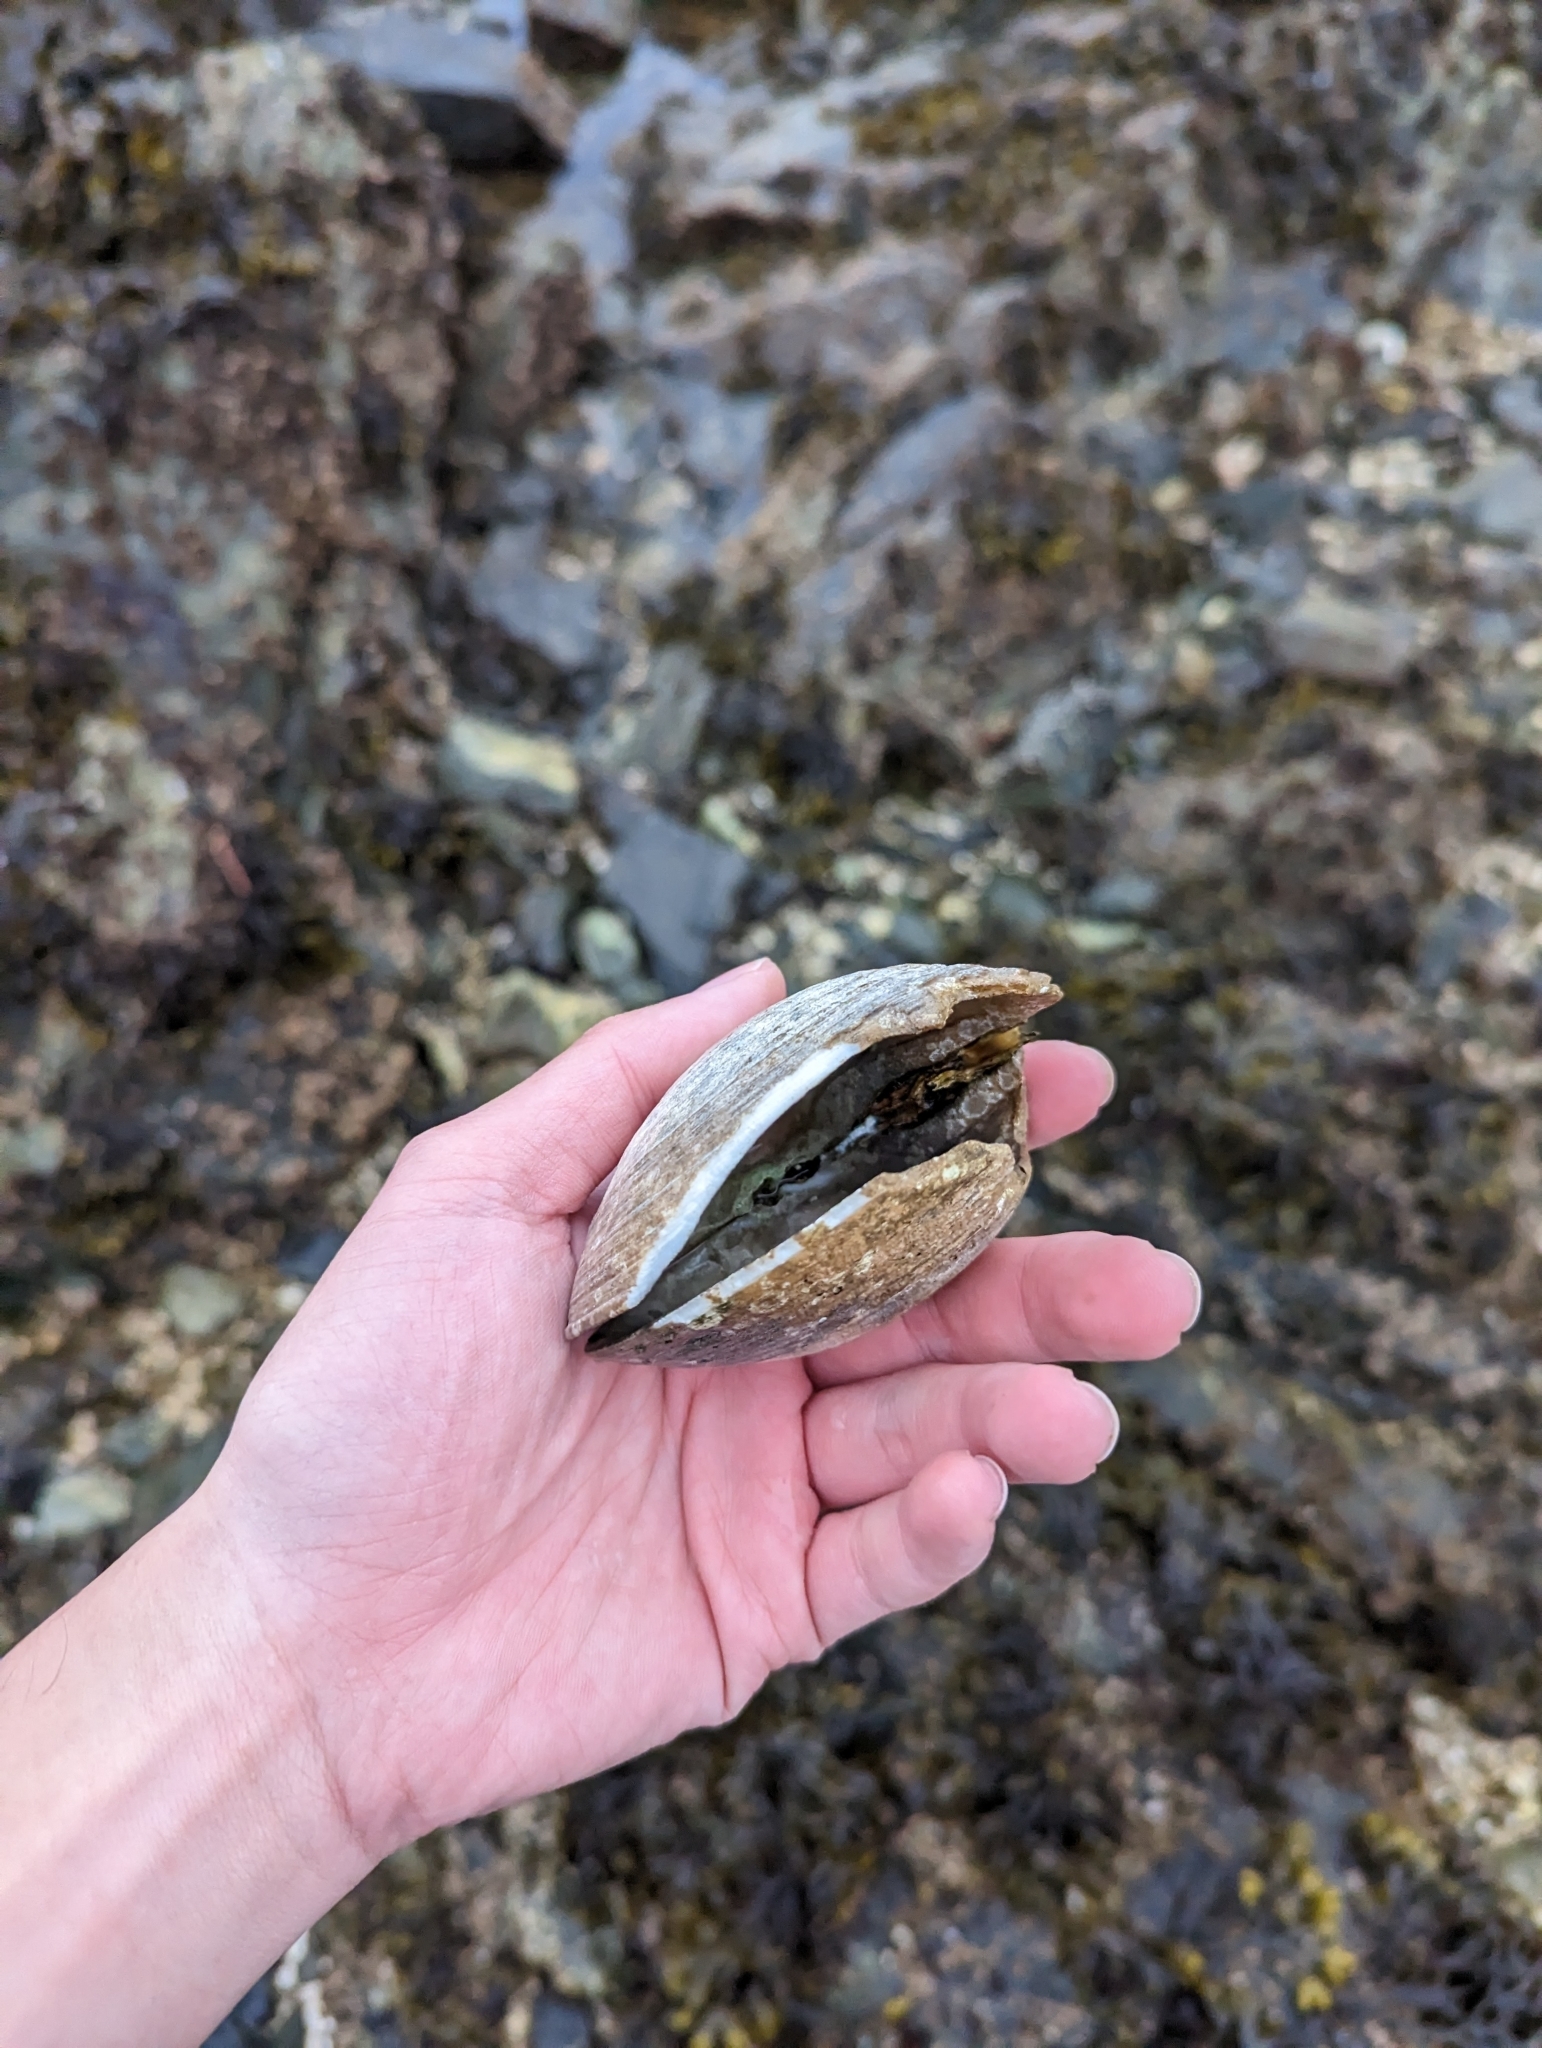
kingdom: Animalia
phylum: Mollusca
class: Bivalvia
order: Venerida
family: Veneridae
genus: Saxidomus
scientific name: Saxidomus gigantea
